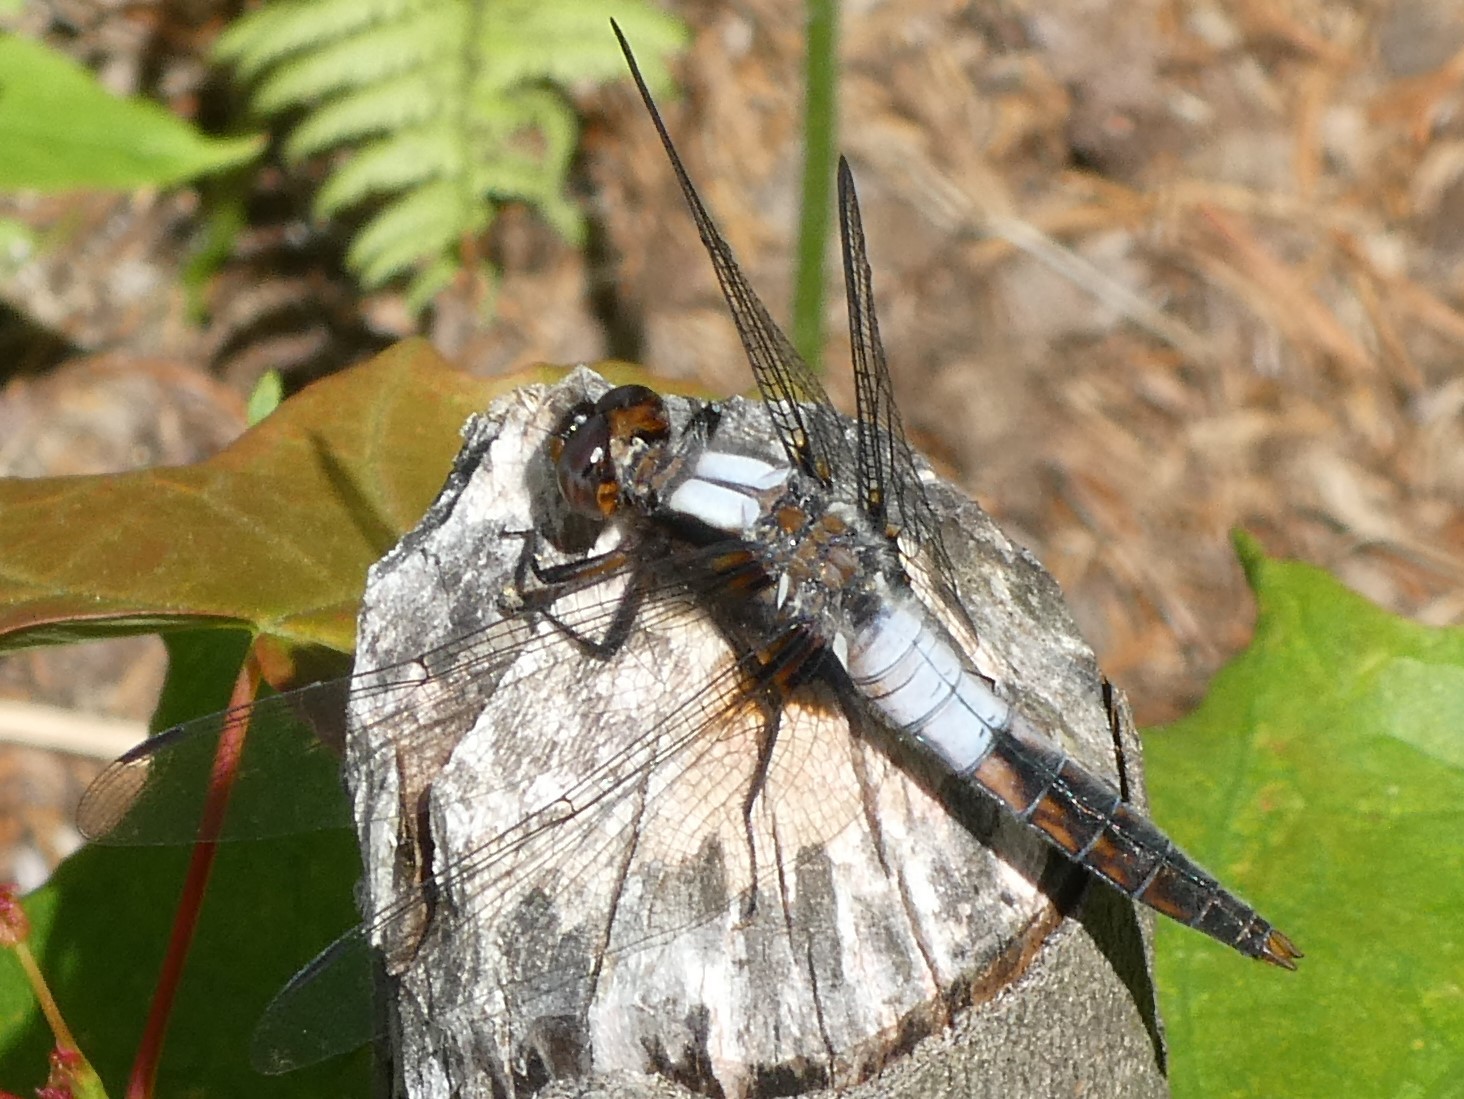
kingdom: Animalia
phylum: Arthropoda
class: Insecta
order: Odonata
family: Libellulidae
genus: Ladona
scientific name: Ladona julia
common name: Chalk-fronted corporal
